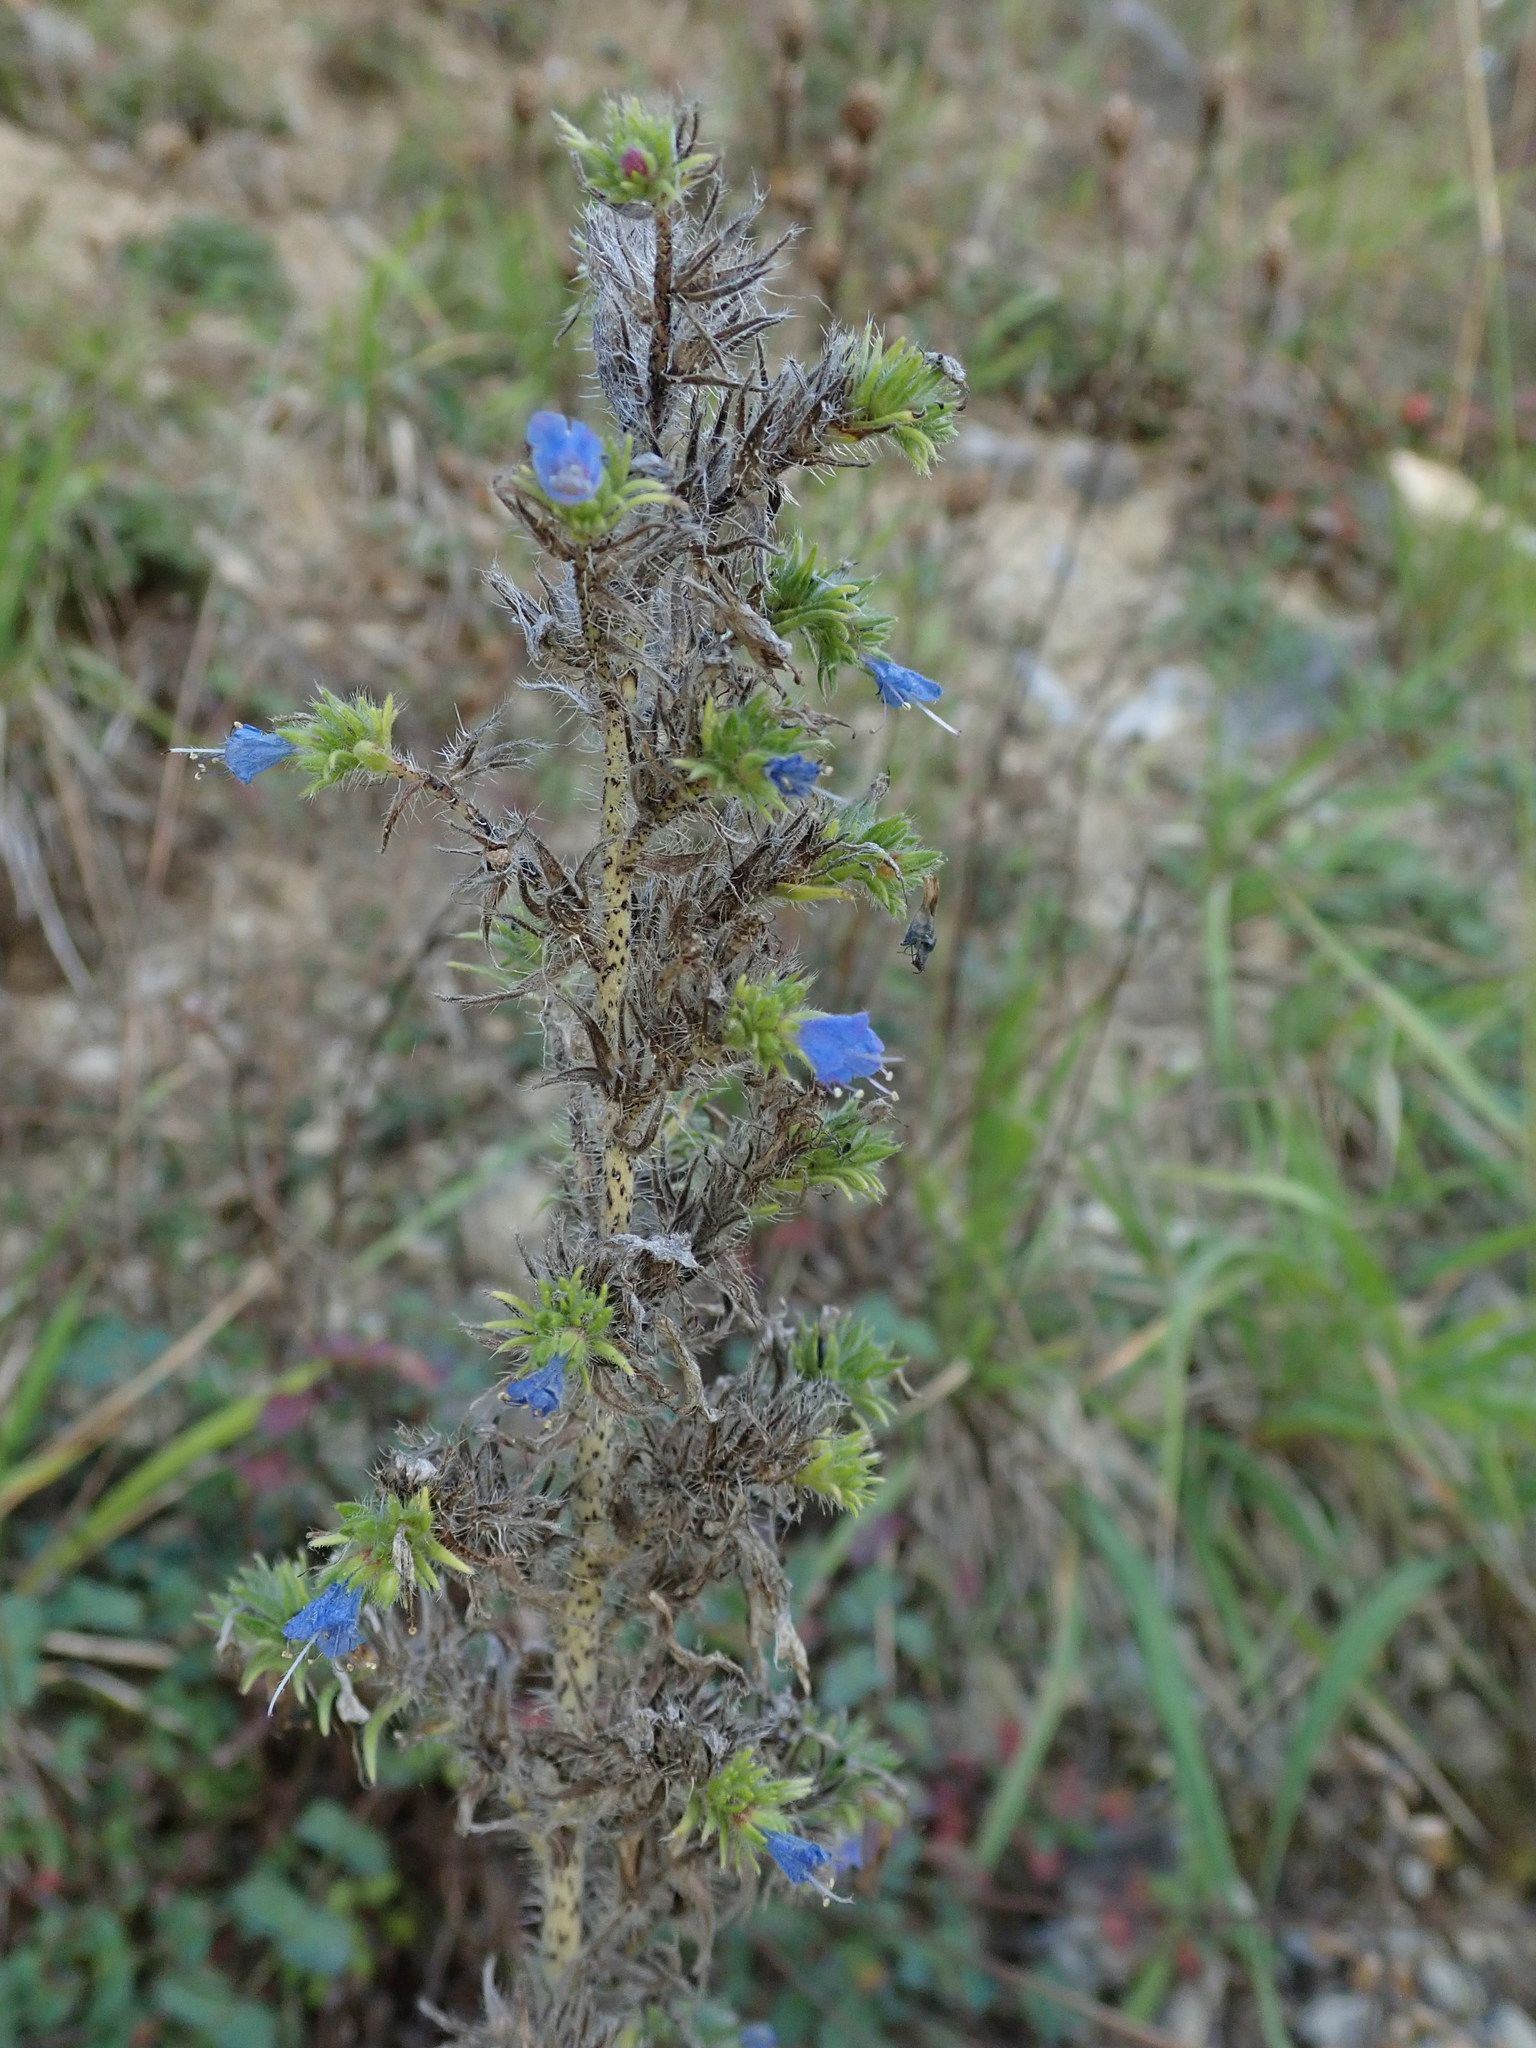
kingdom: Plantae
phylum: Tracheophyta
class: Magnoliopsida
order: Boraginales
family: Boraginaceae
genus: Echium
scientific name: Echium vulgare
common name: Common viper's bugloss
